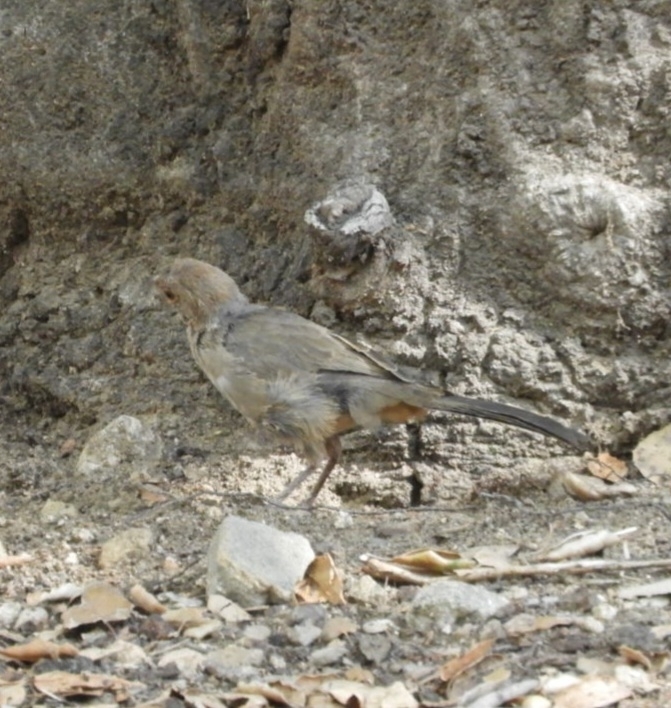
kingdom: Animalia
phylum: Chordata
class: Aves
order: Passeriformes
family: Passerellidae
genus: Melozone
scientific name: Melozone crissalis
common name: California towhee
